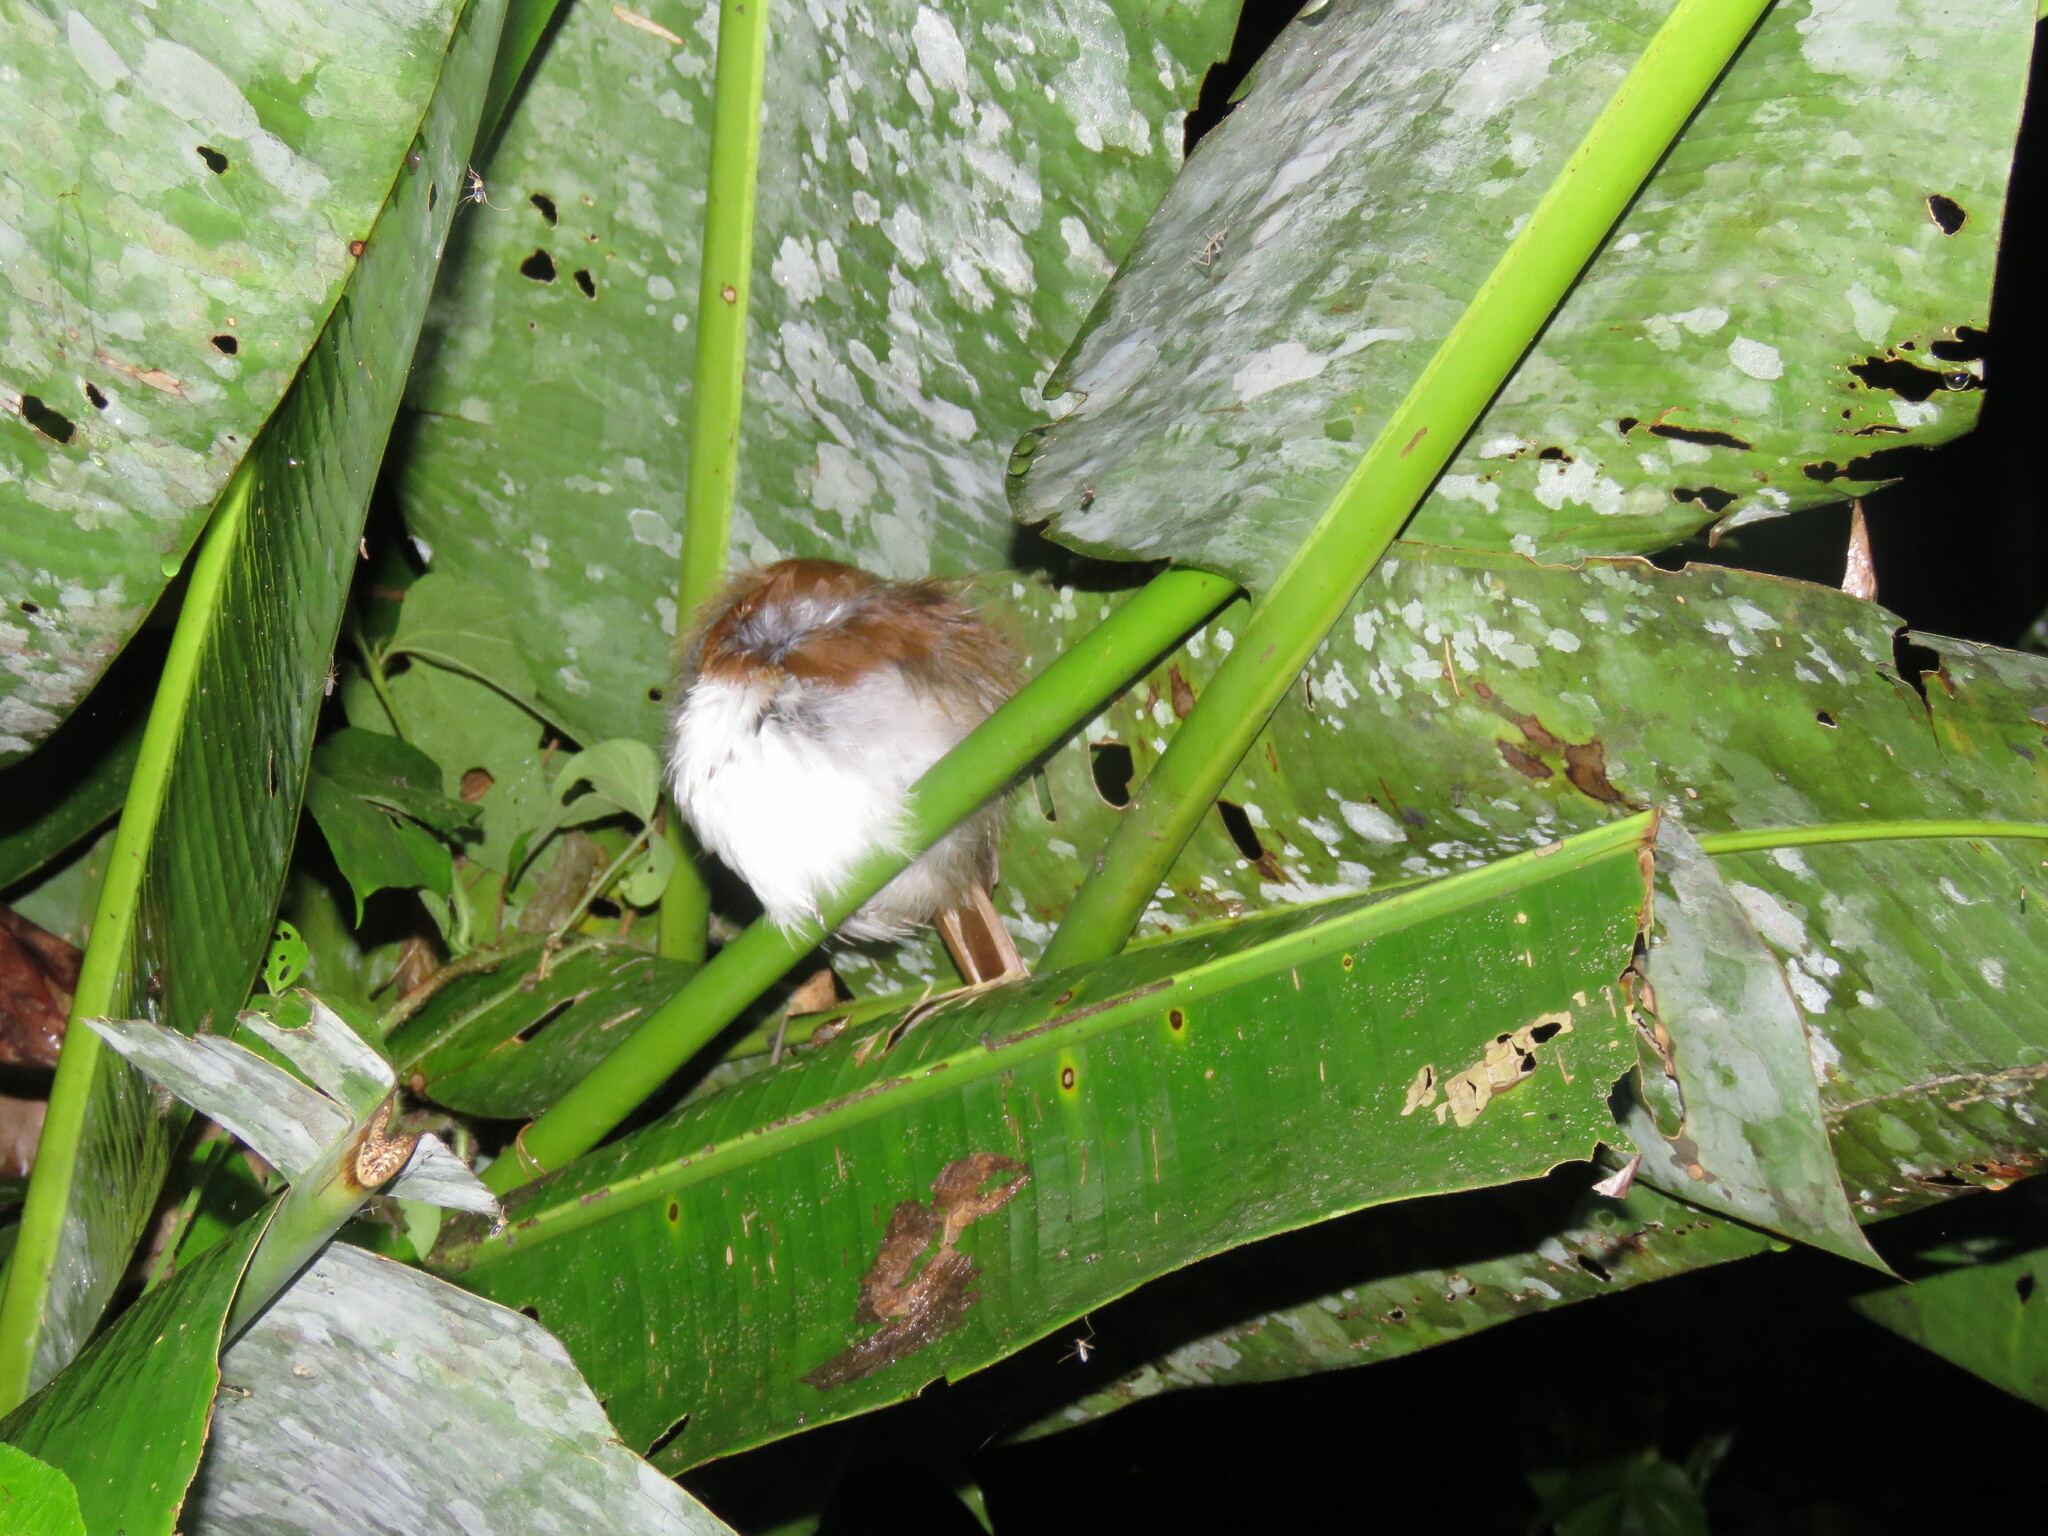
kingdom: Animalia
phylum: Chordata
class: Aves
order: Passeriformes
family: Thamnophilidae
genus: Taraba
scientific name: Taraba major
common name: Great antshrike
